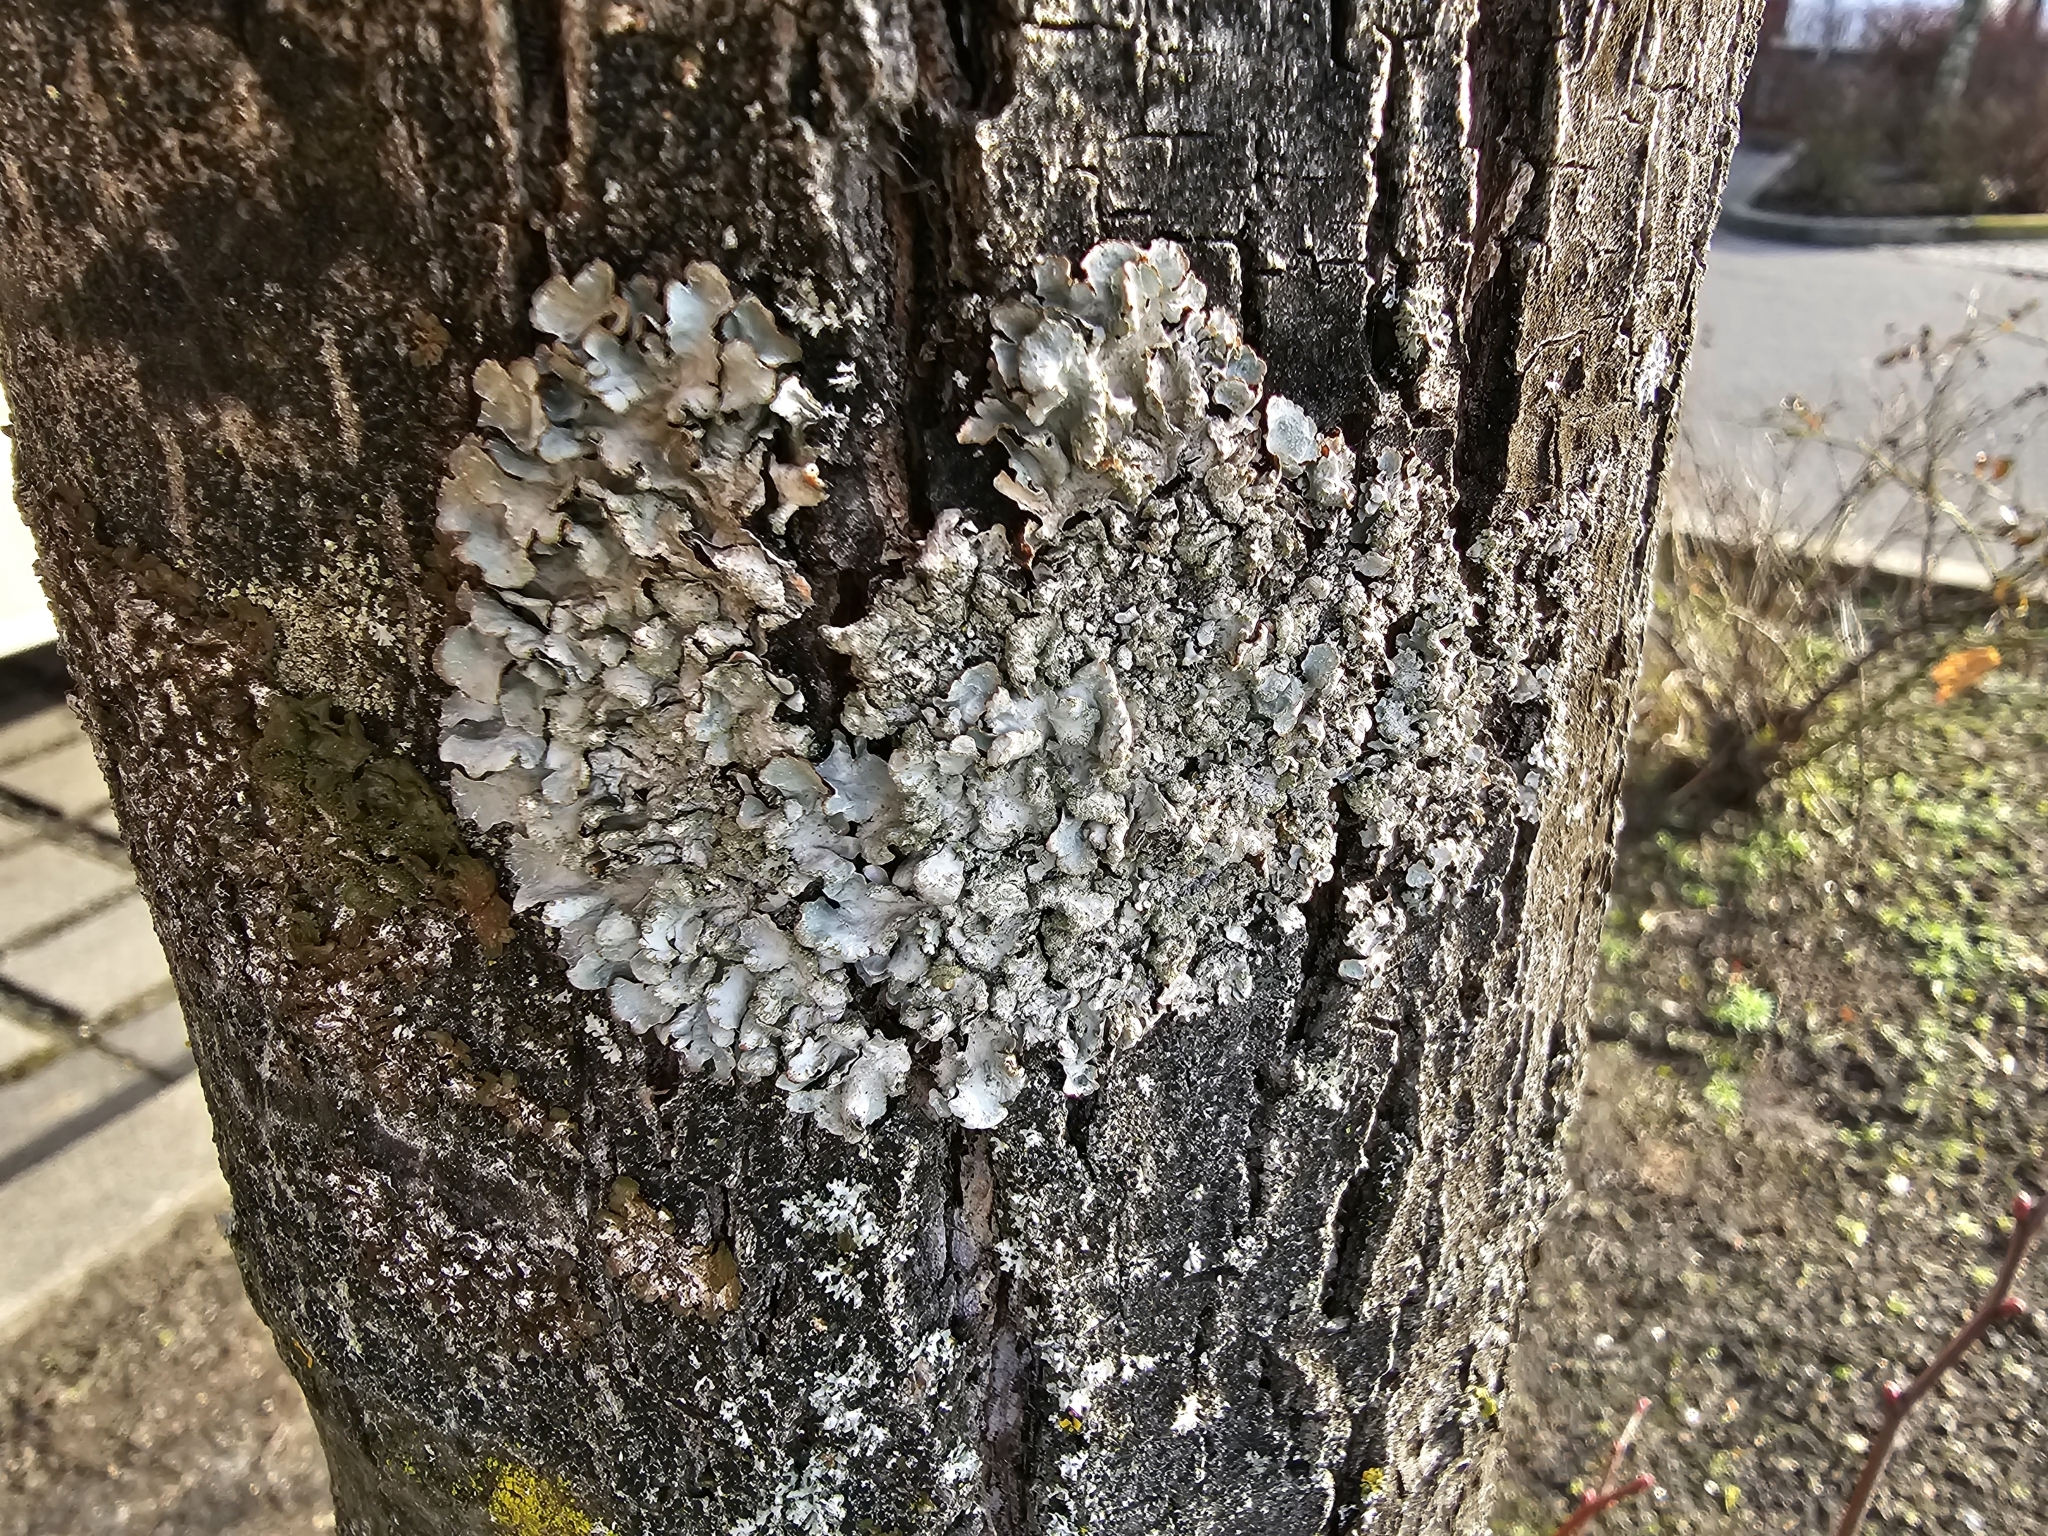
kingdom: Fungi
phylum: Ascomycota
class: Lecanoromycetes
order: Lecanorales
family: Parmeliaceae
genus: Parmelia
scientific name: Parmelia sulcata
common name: Netted shield lichen
